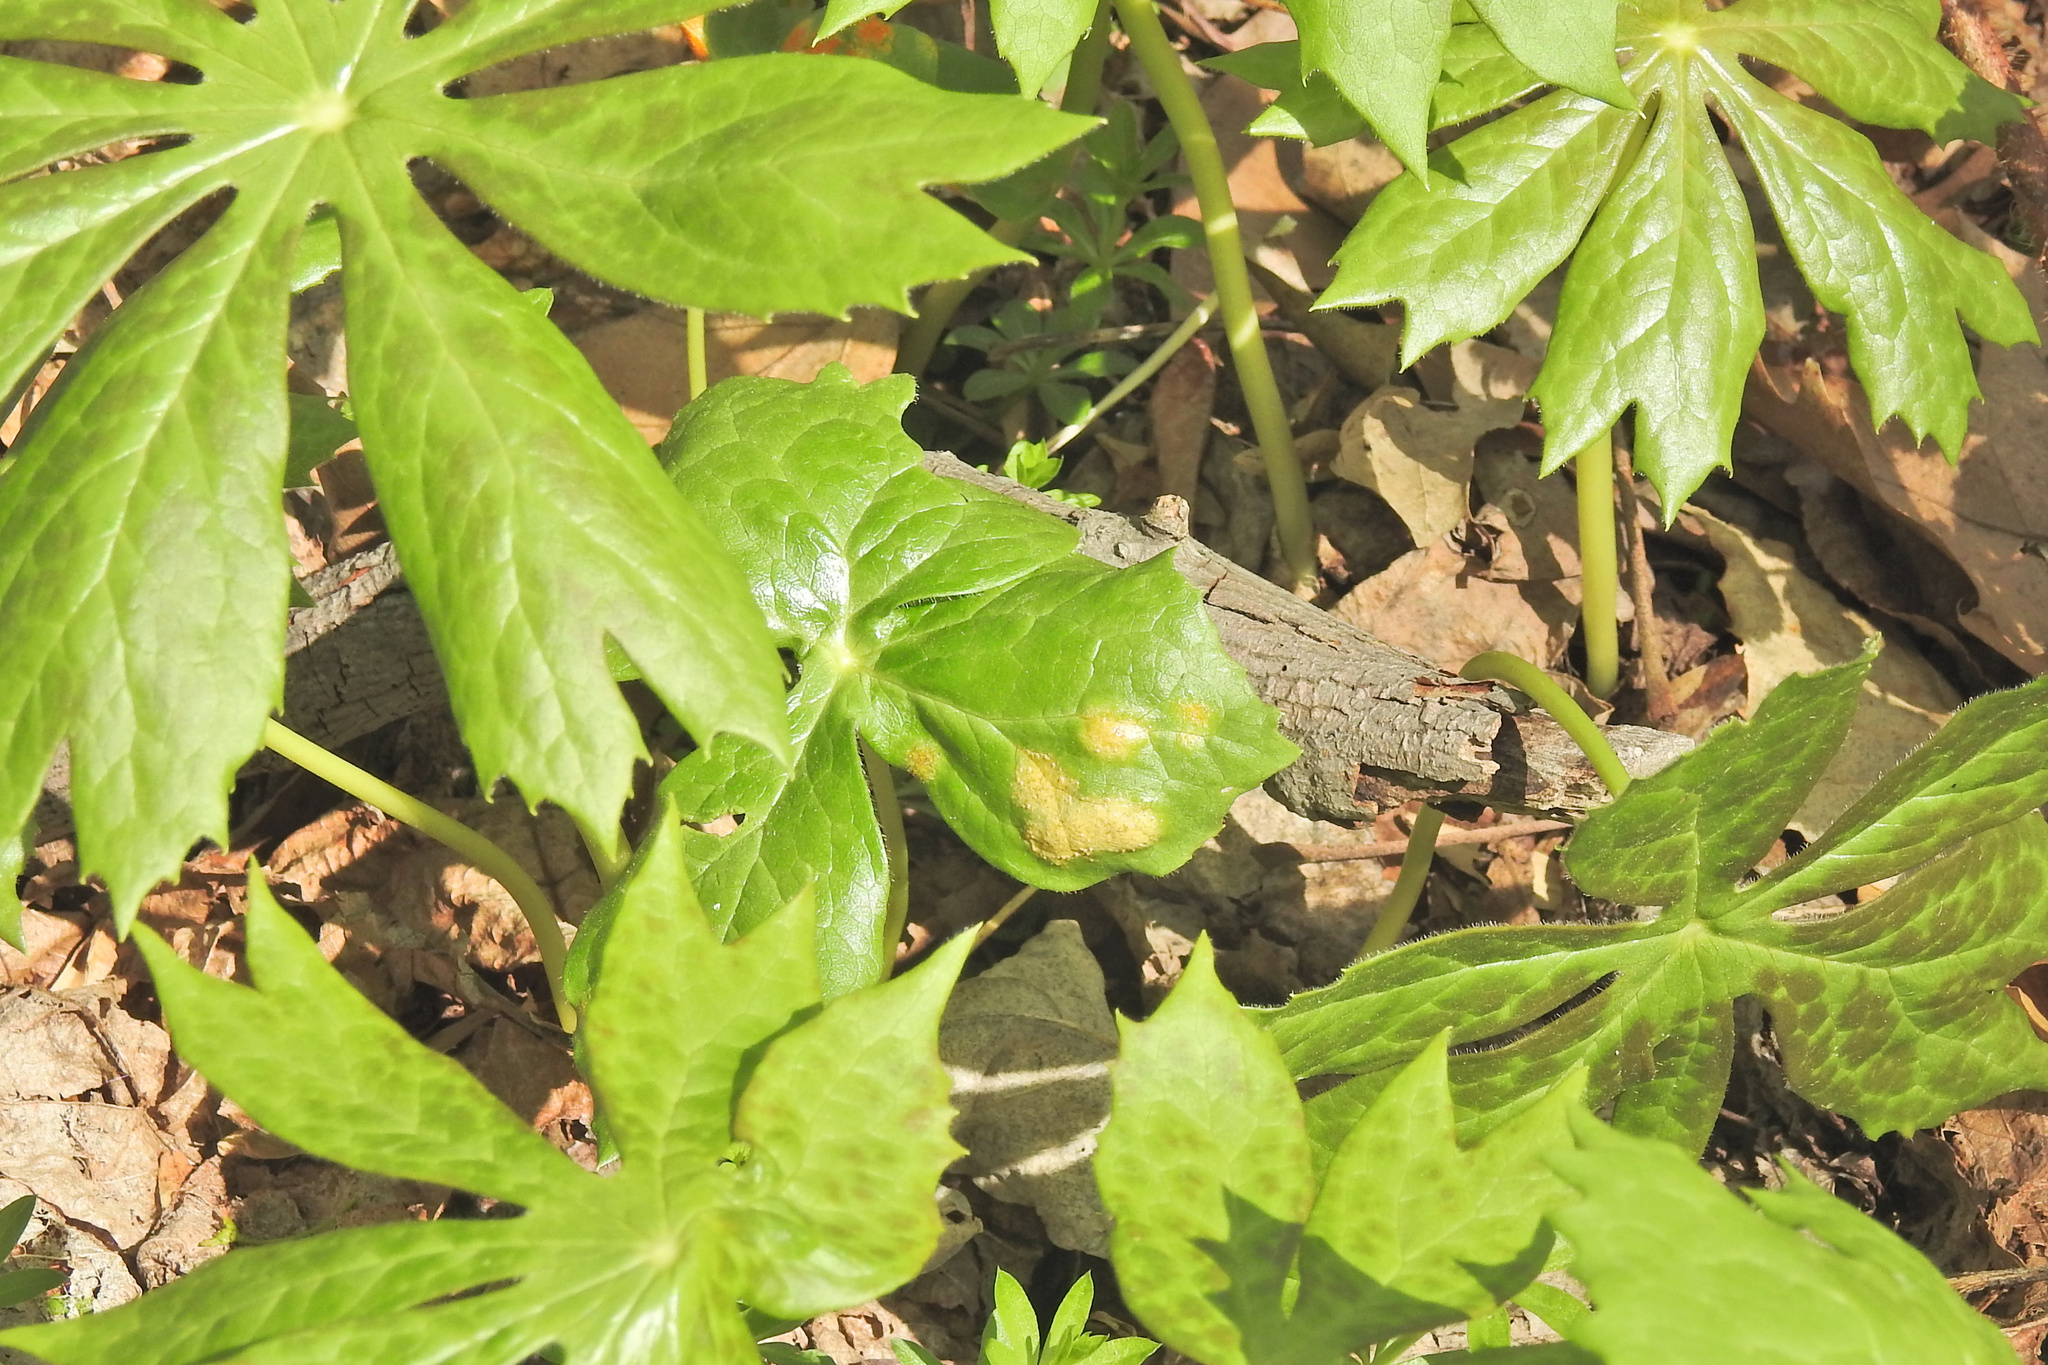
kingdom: Fungi
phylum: Basidiomycota
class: Pucciniomycetes
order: Pucciniales
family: Pucciniaceae
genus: Puccinia
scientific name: Puccinia podophylli
